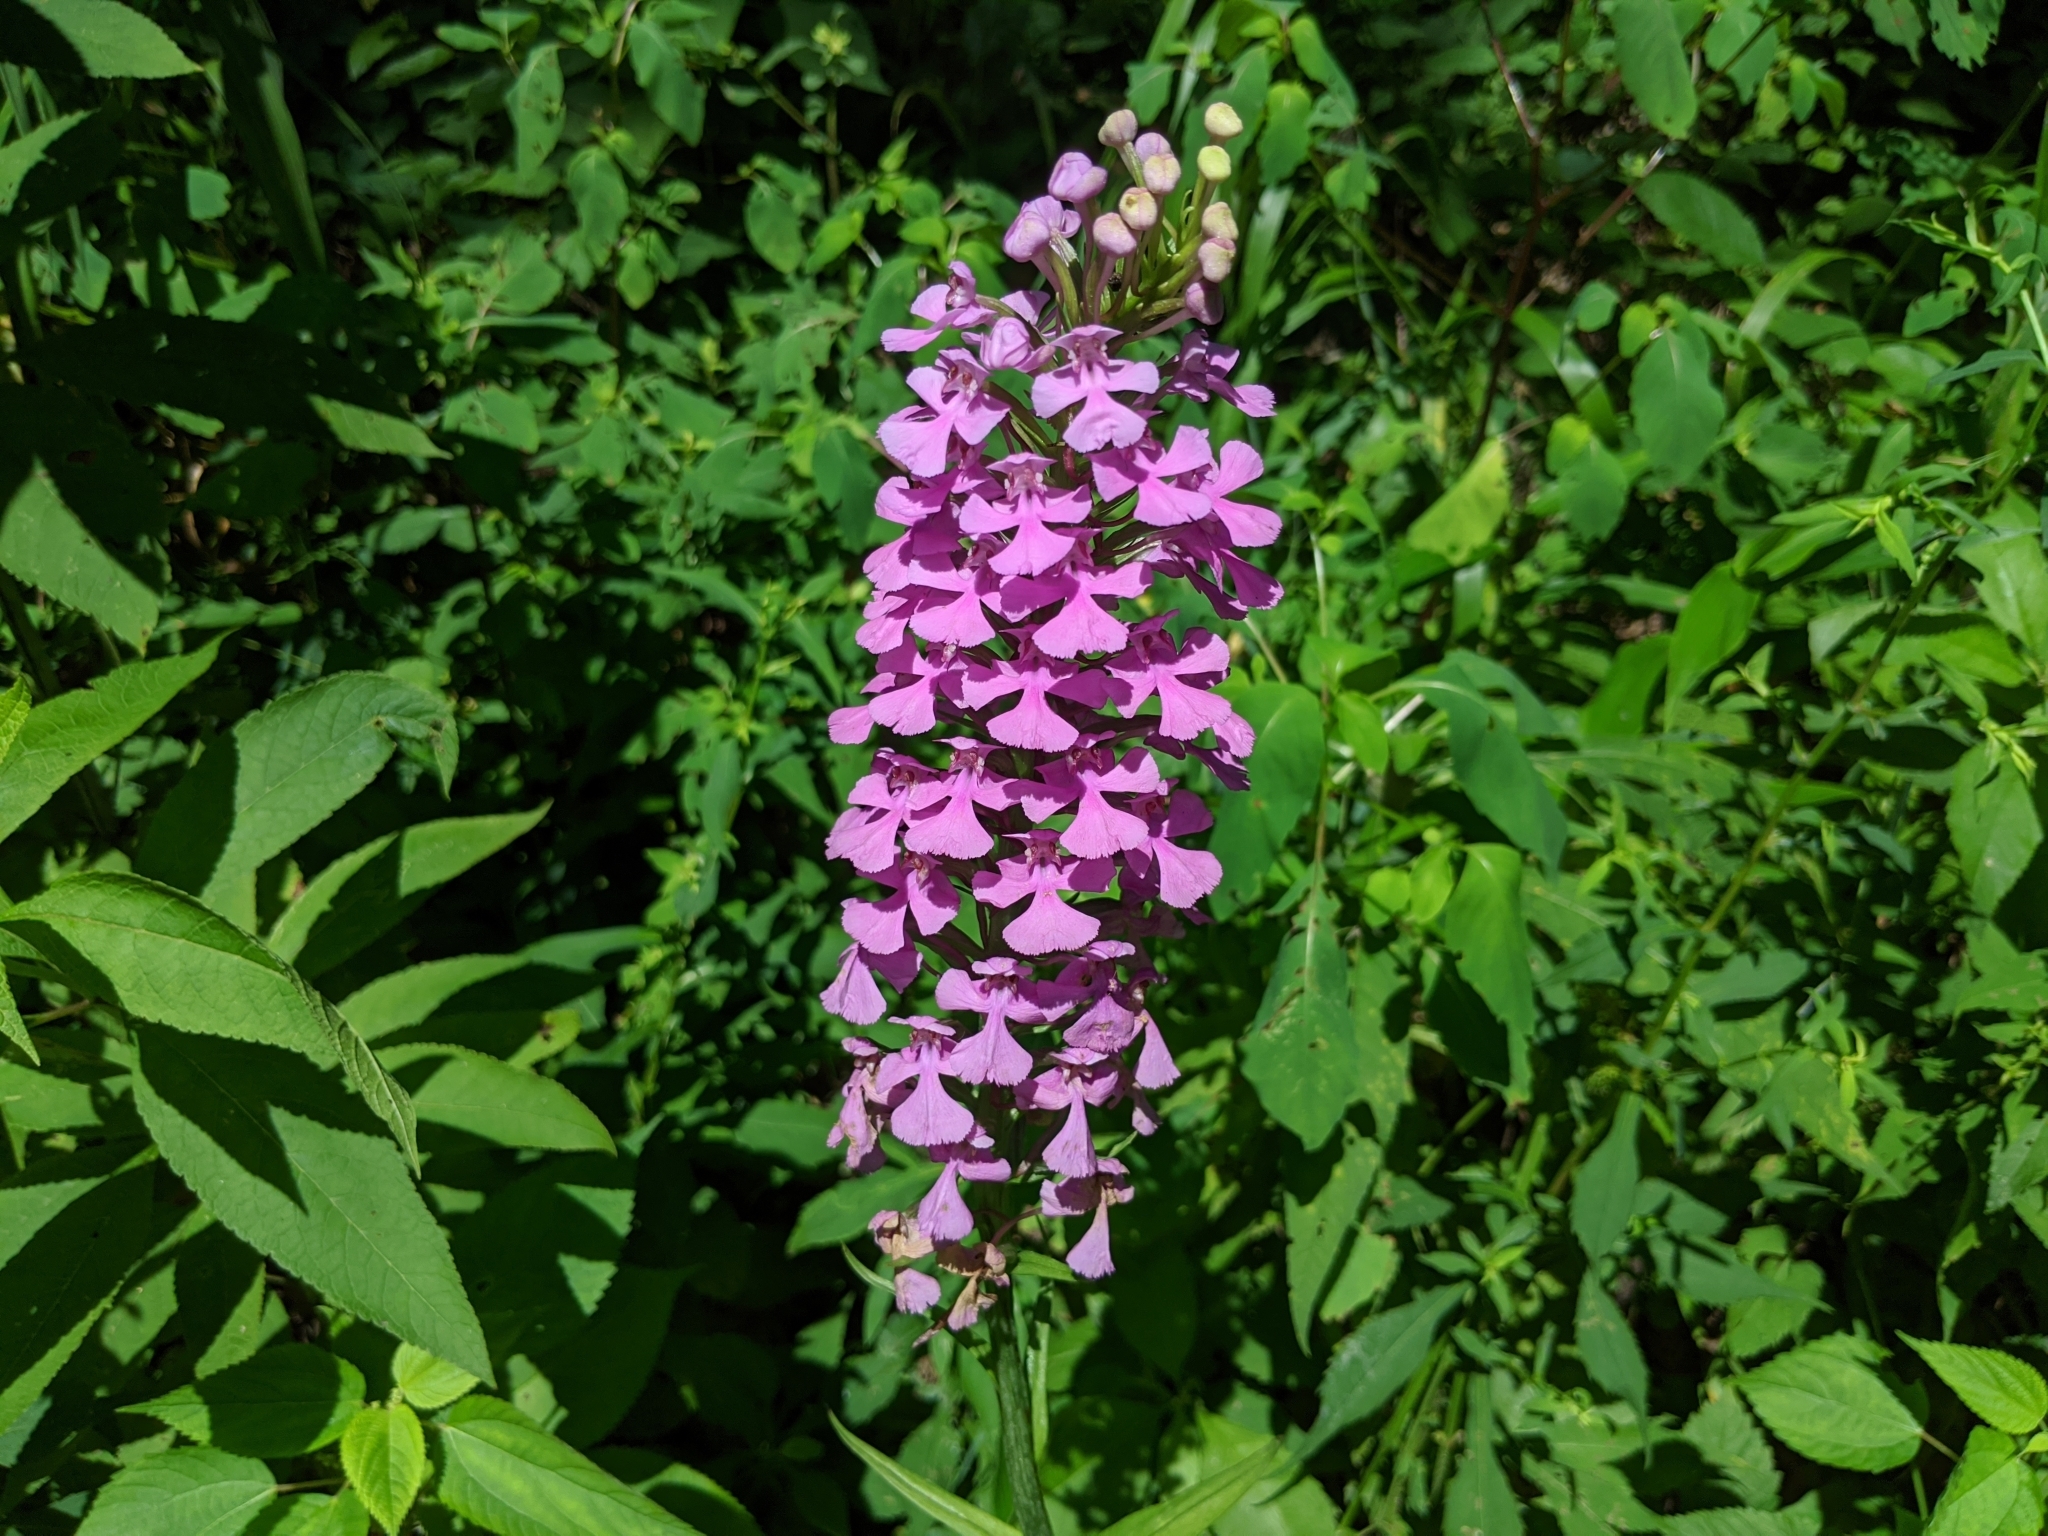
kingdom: Plantae
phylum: Tracheophyta
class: Liliopsida
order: Asparagales
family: Orchidaceae
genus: Platanthera
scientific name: Platanthera peramoena
